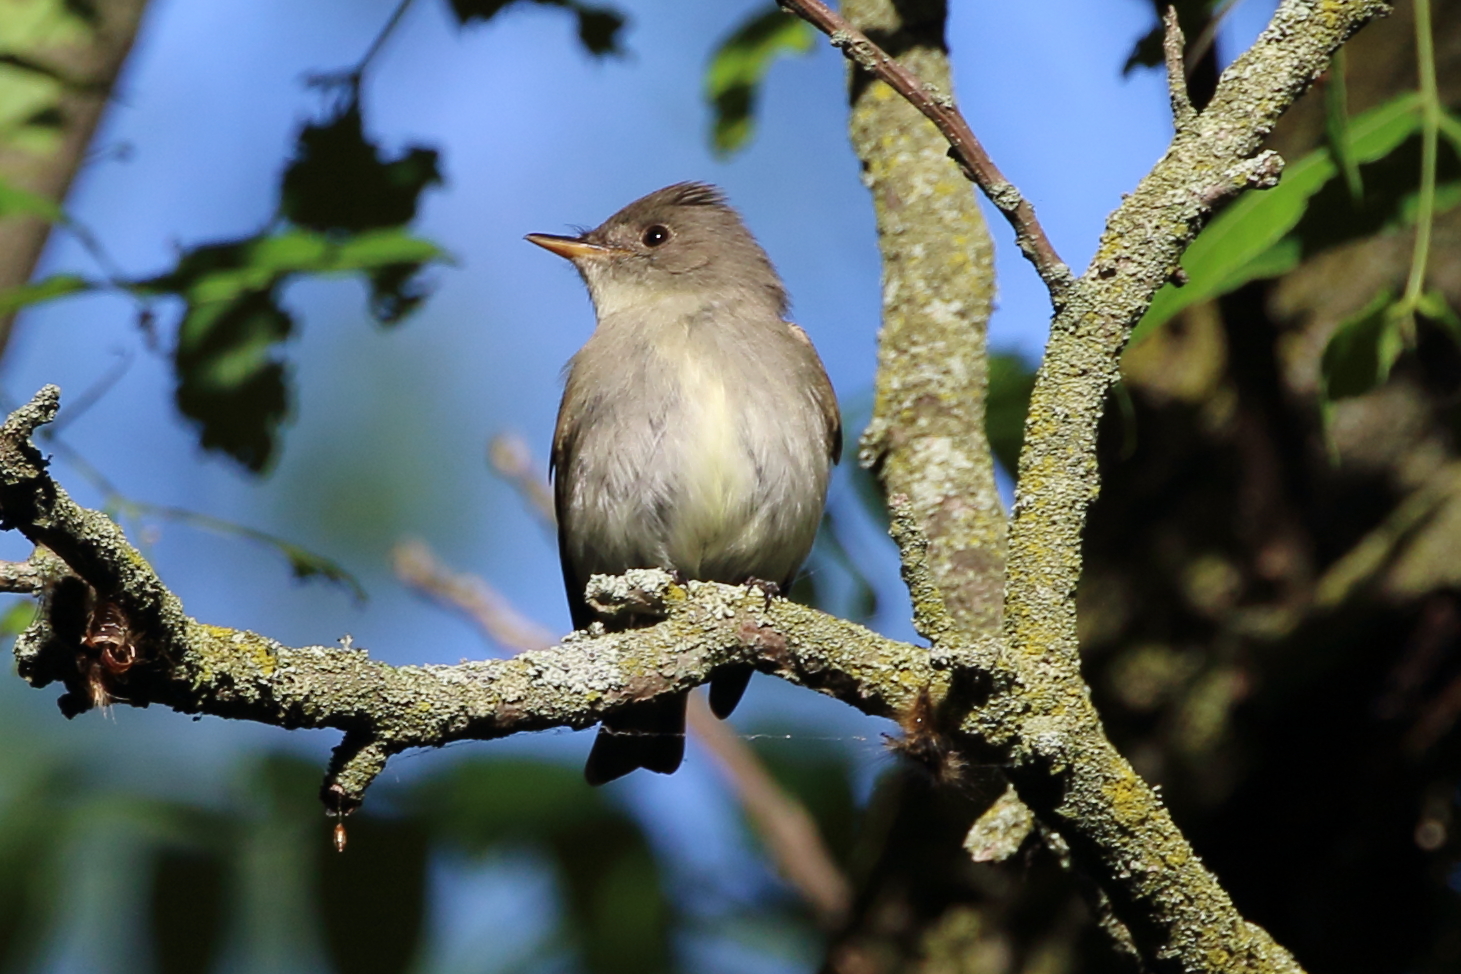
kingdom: Animalia
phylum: Chordata
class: Aves
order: Passeriformes
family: Tyrannidae
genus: Contopus
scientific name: Contopus virens
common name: Eastern wood-pewee
